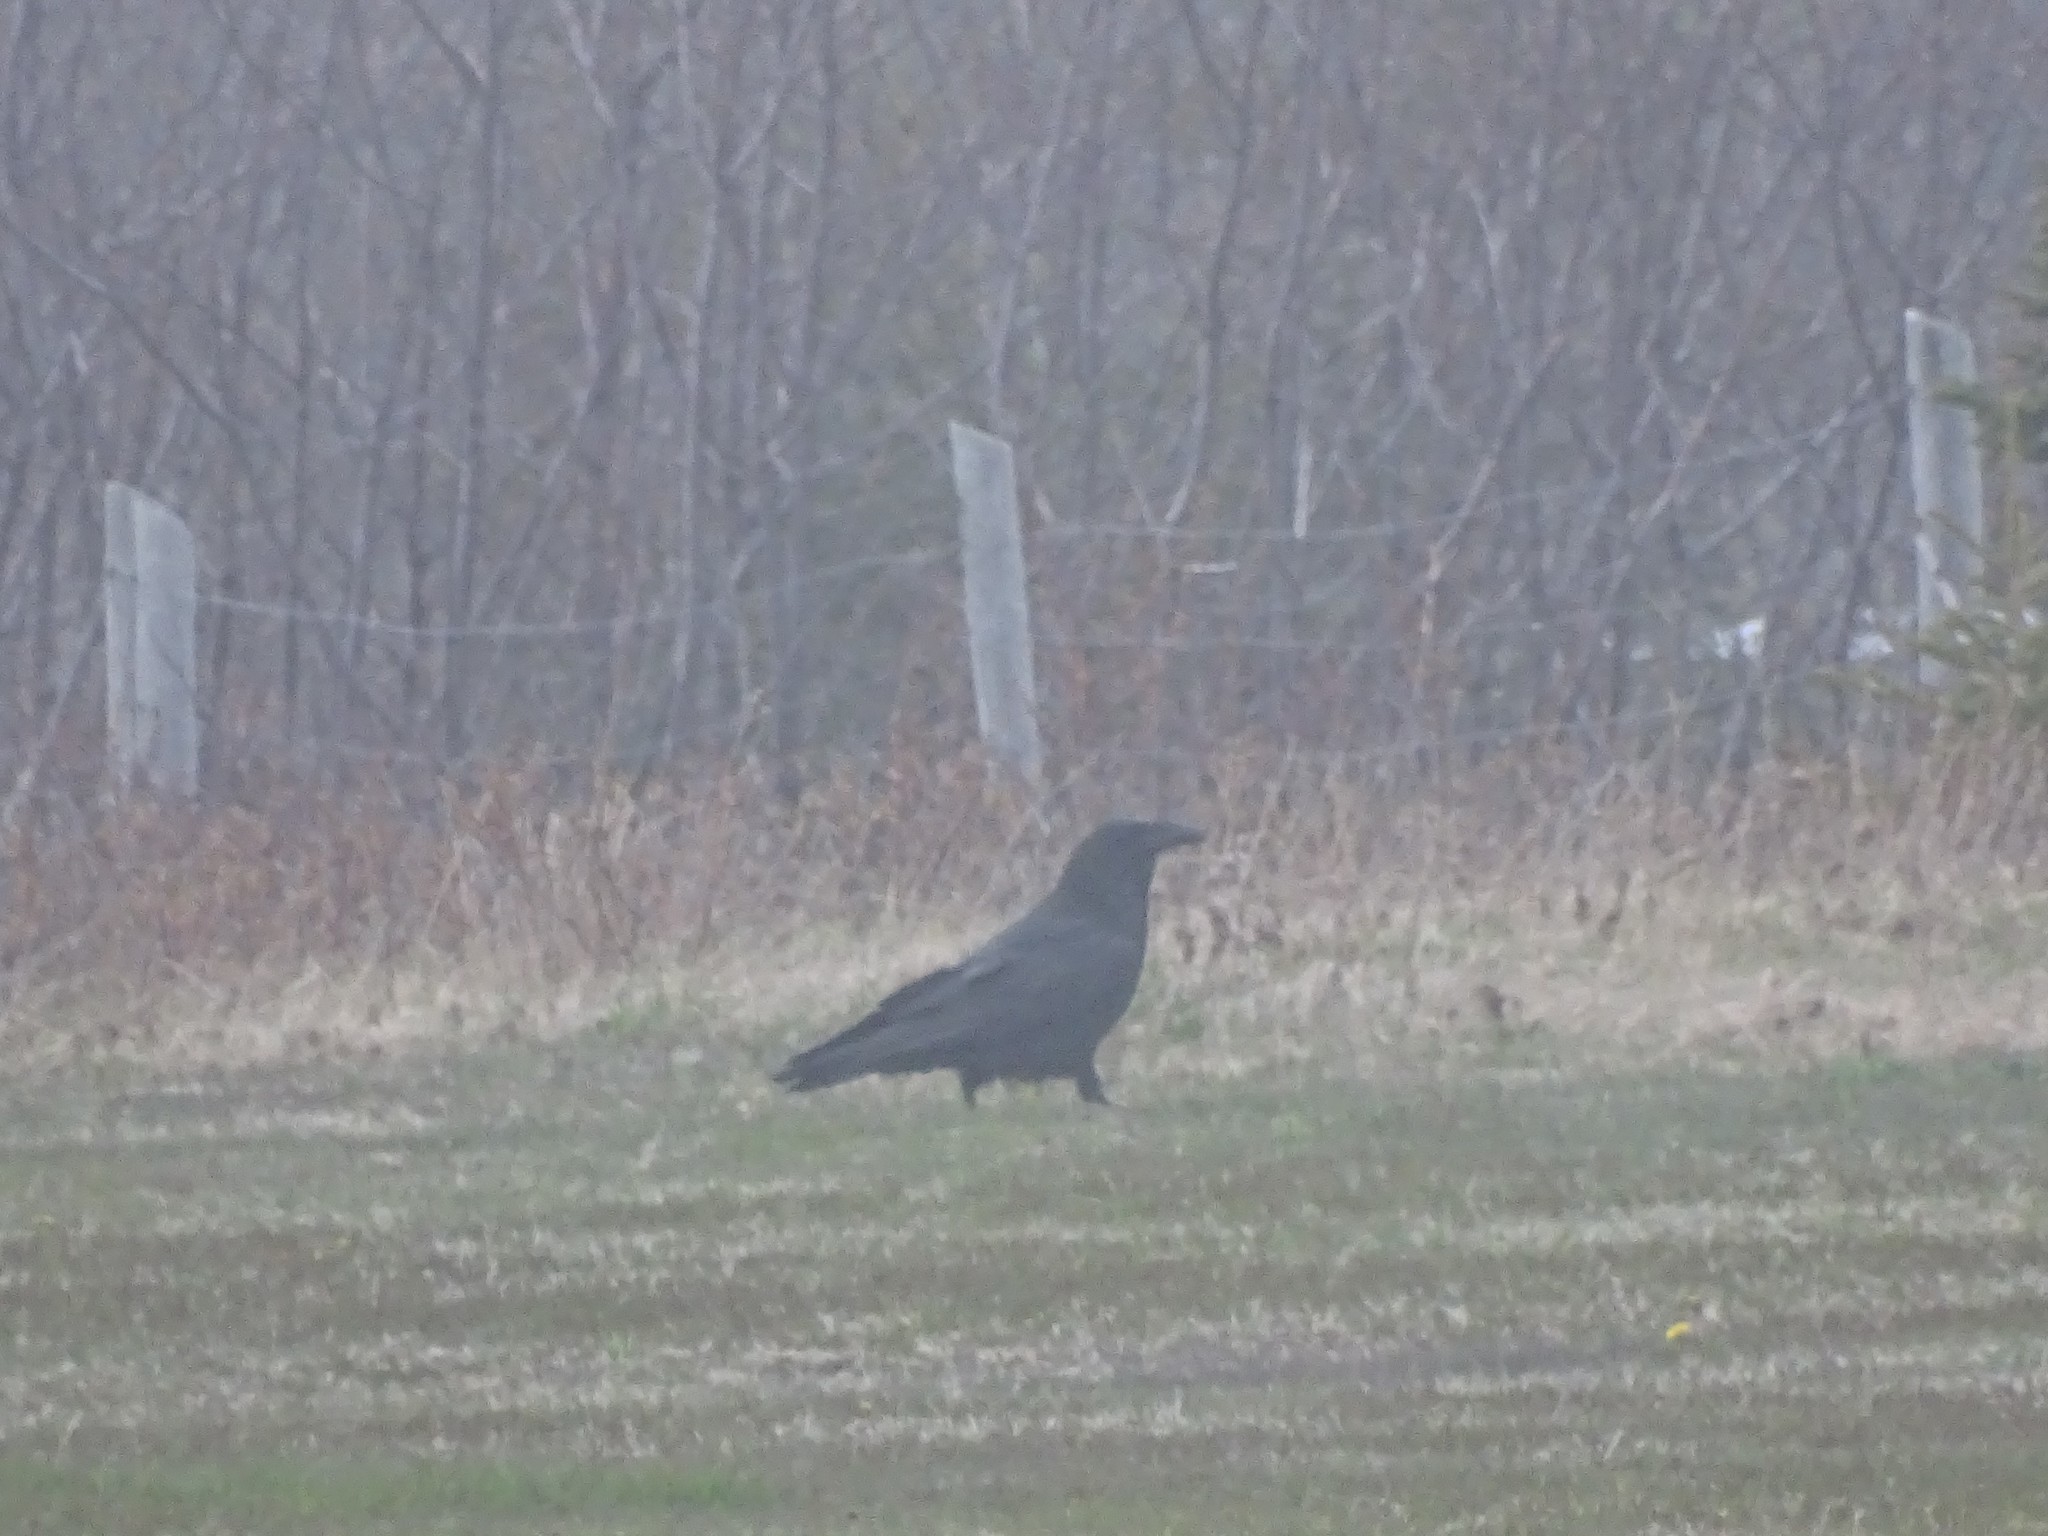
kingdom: Animalia
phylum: Chordata
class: Aves
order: Passeriformes
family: Corvidae
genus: Corvus
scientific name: Corvus corax
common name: Common raven
